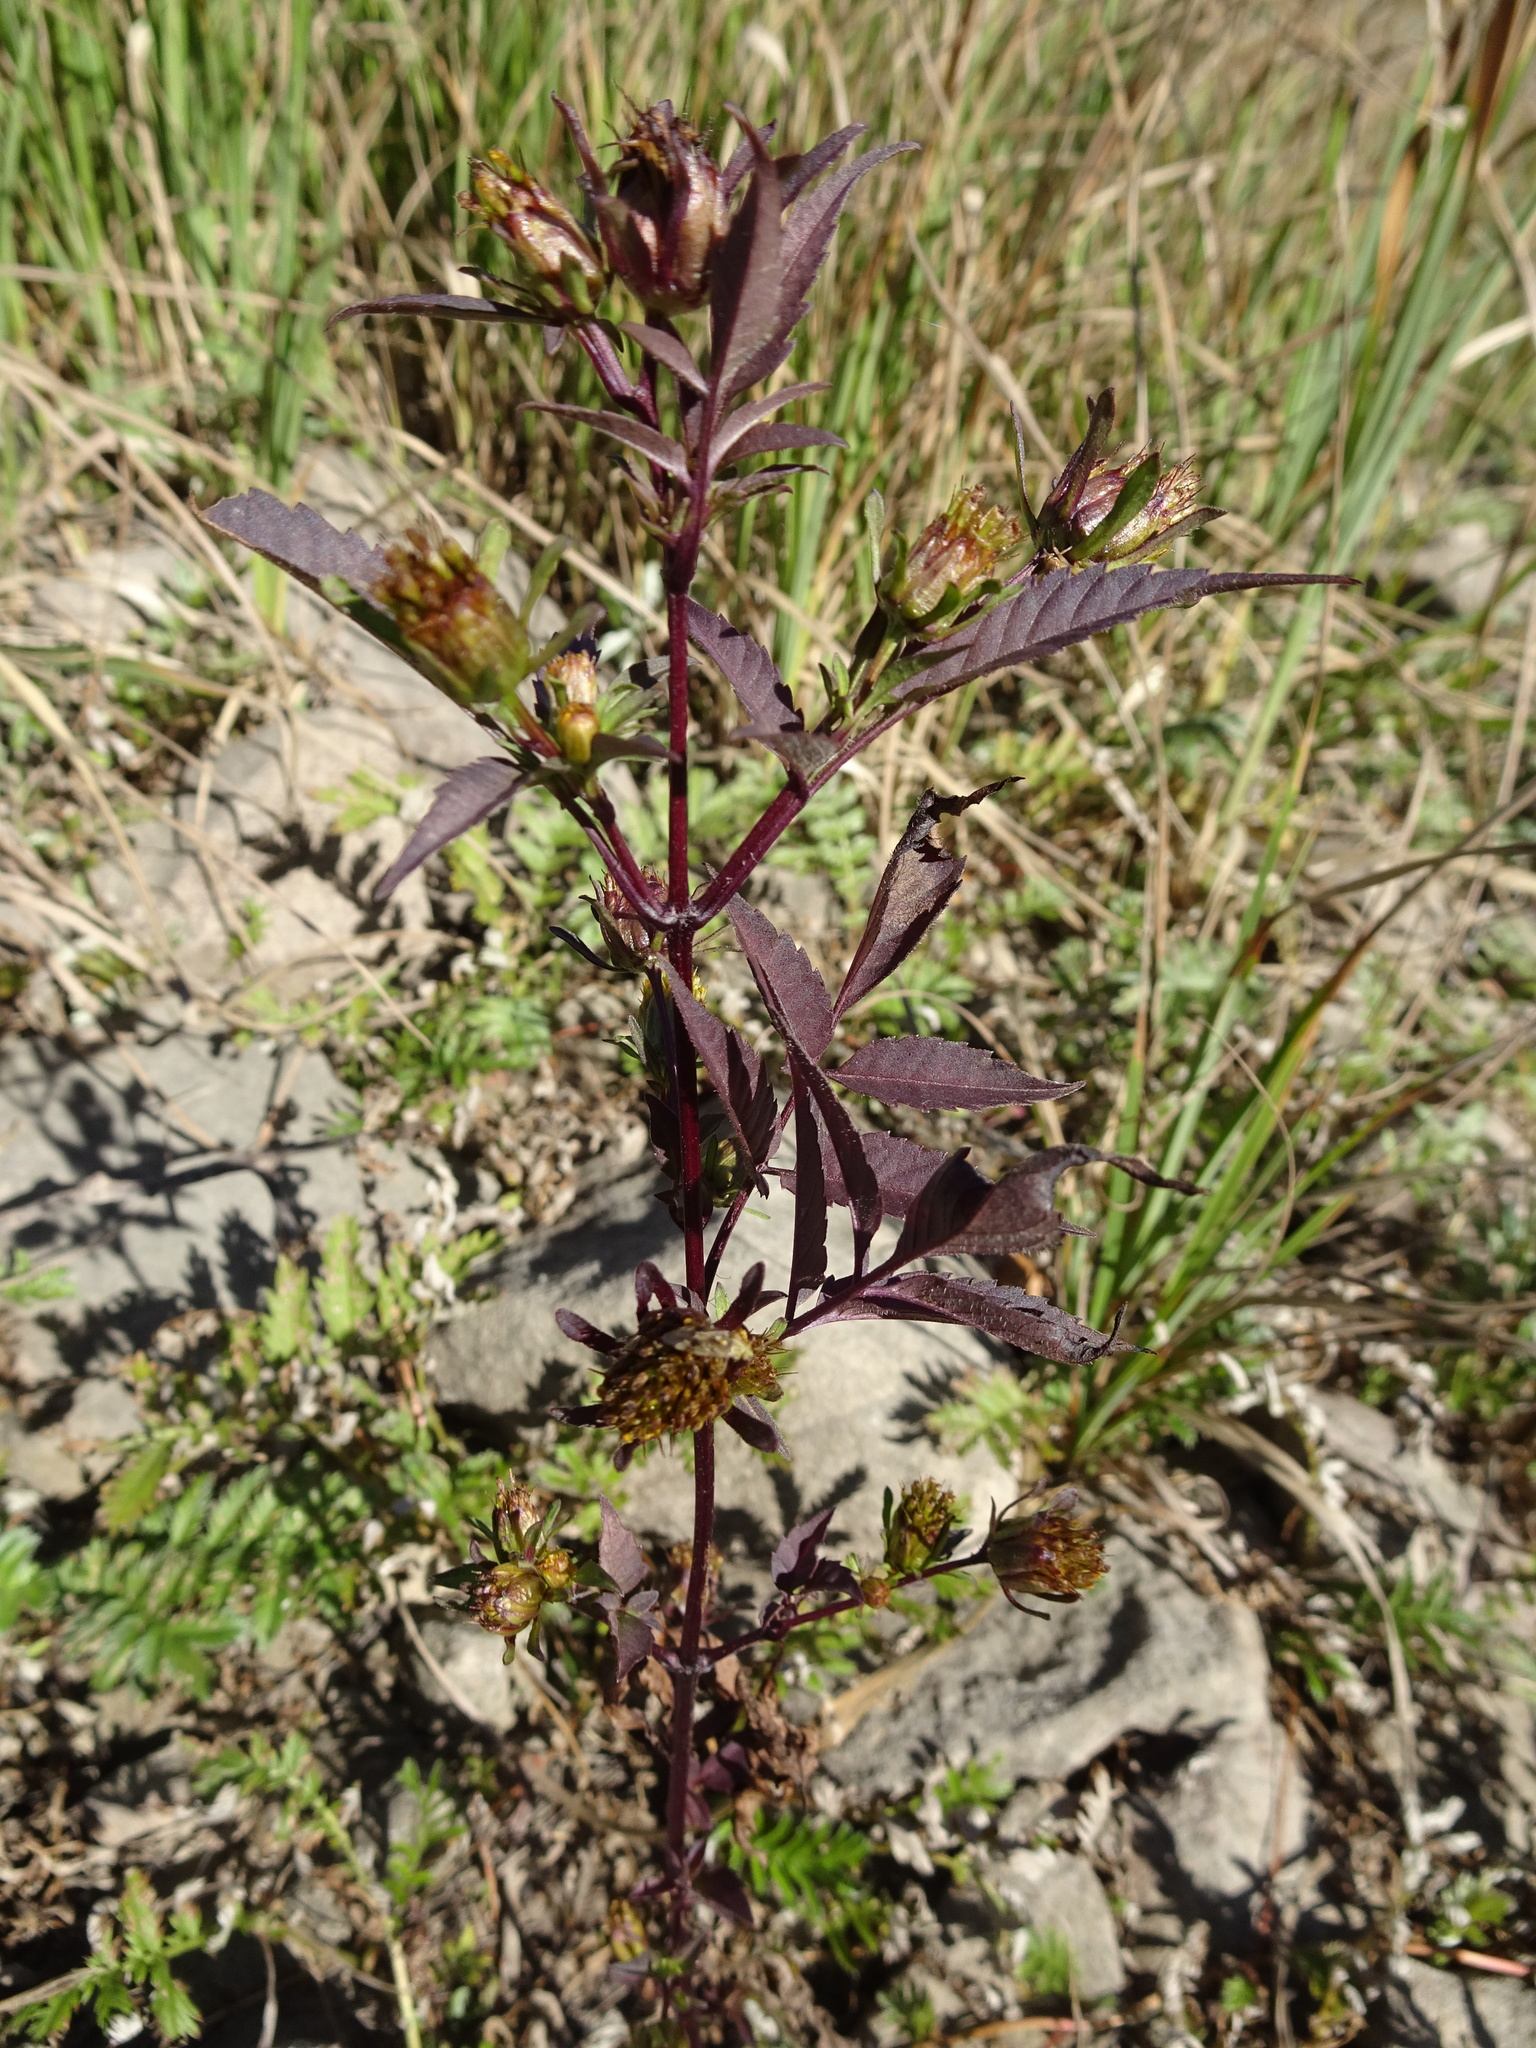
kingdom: Plantae
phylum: Tracheophyta
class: Magnoliopsida
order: Asterales
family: Asteraceae
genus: Bidens
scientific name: Bidens frondosa
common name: Beggarticks
